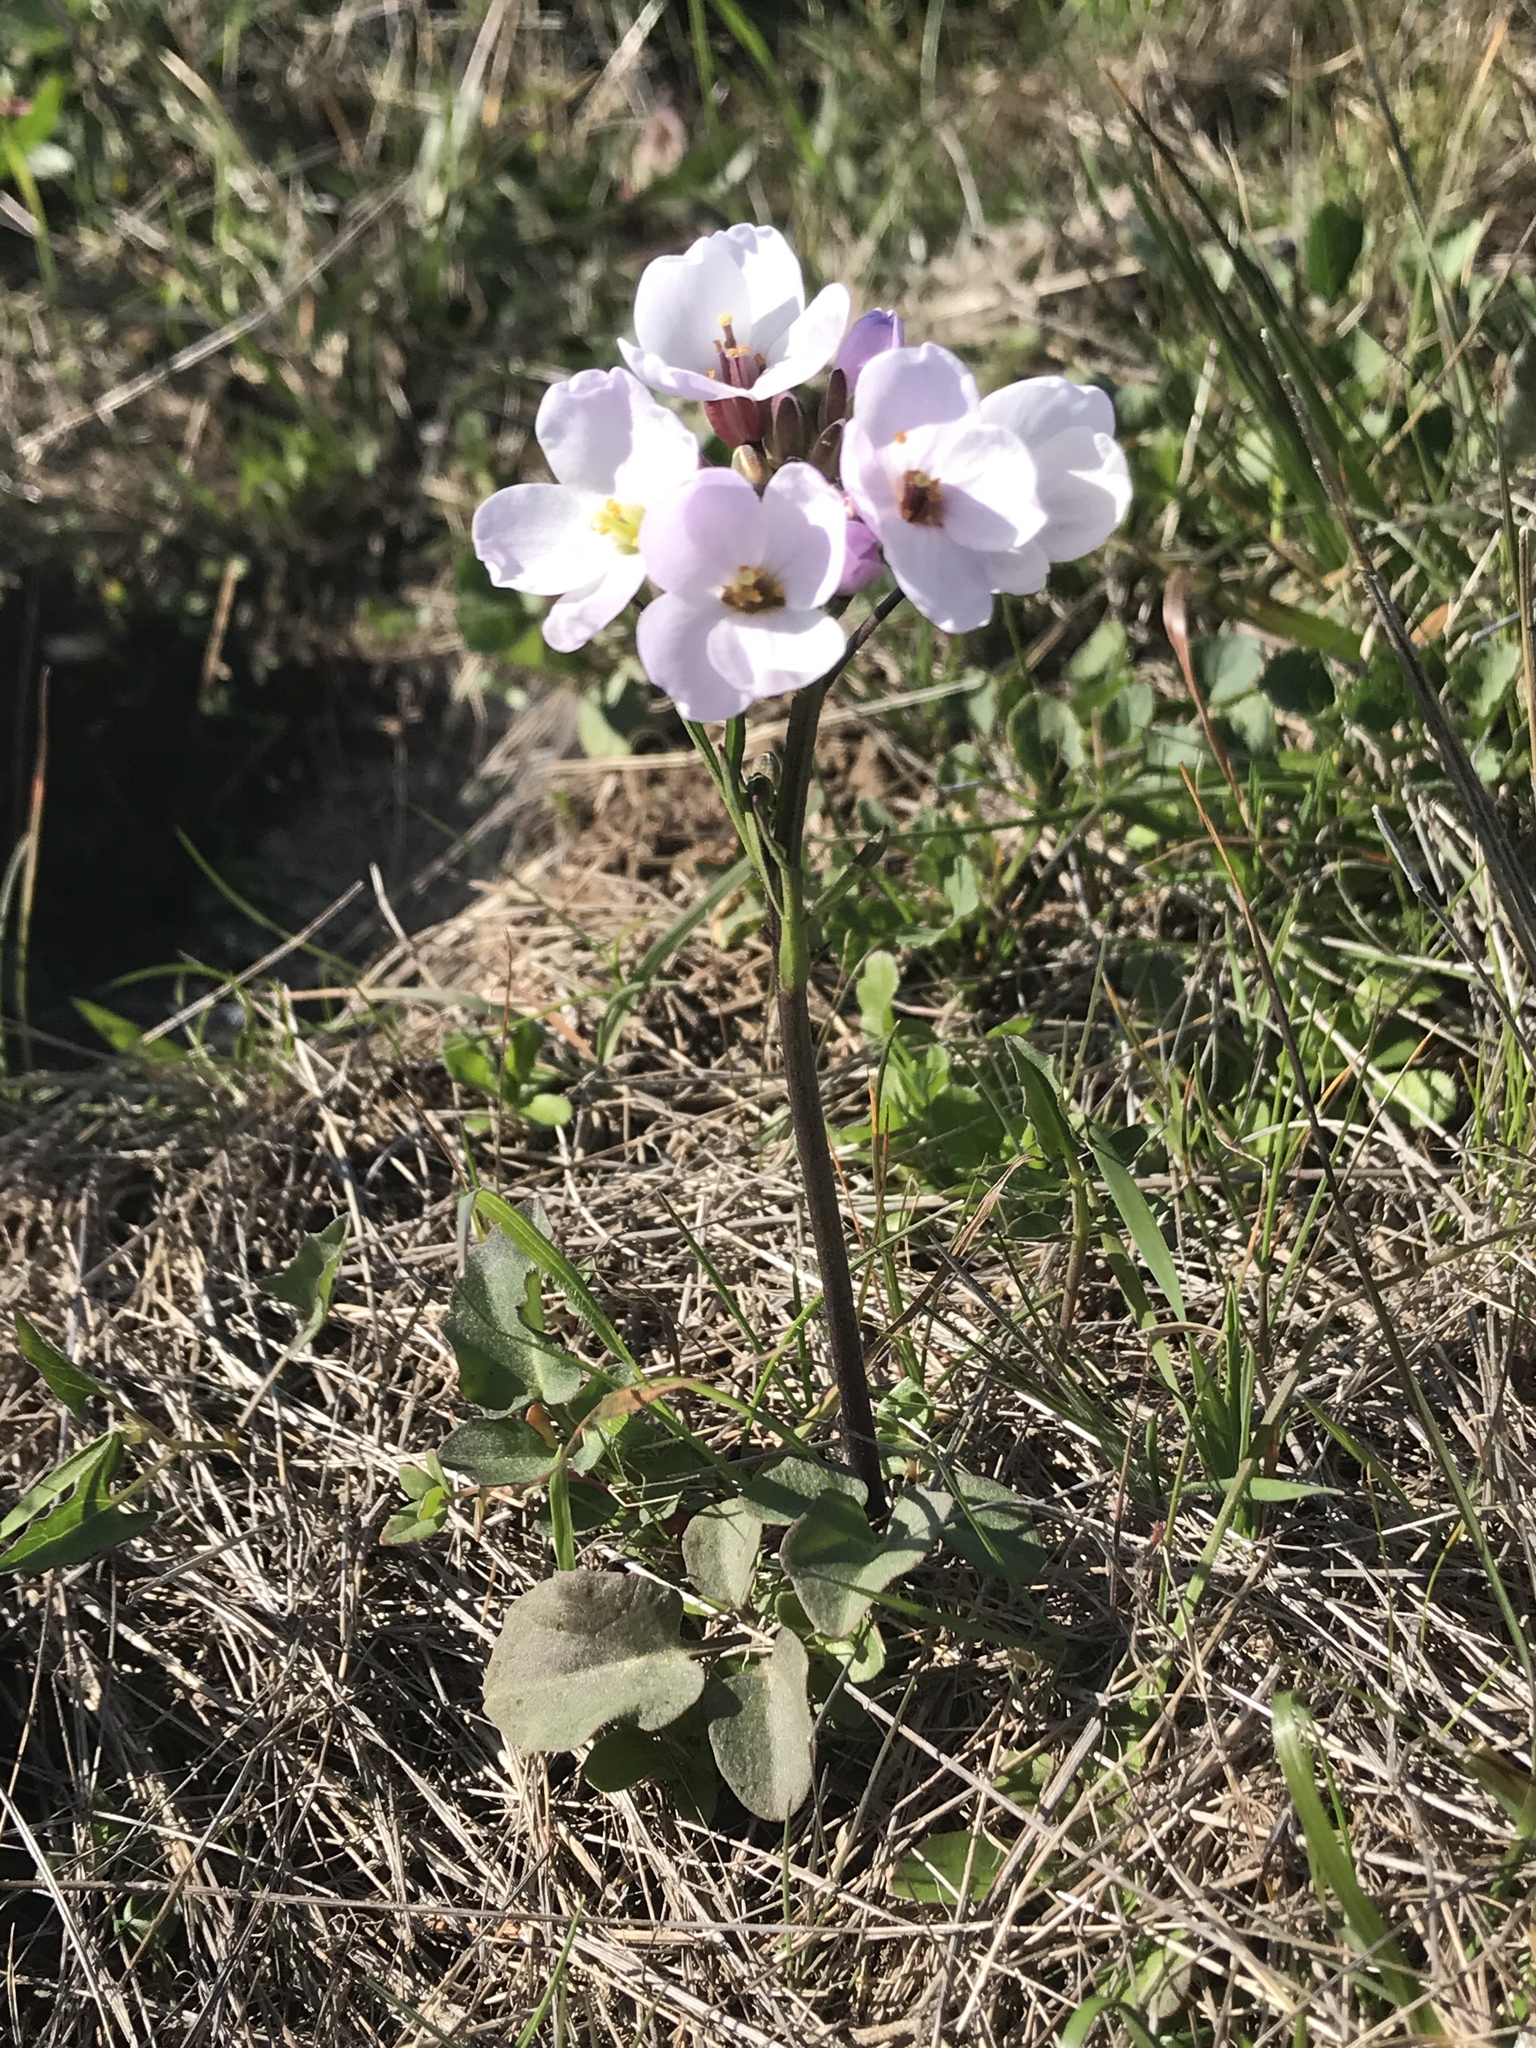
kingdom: Plantae
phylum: Tracheophyta
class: Magnoliopsida
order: Brassicales
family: Brassicaceae
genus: Cardamine
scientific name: Cardamine californica
